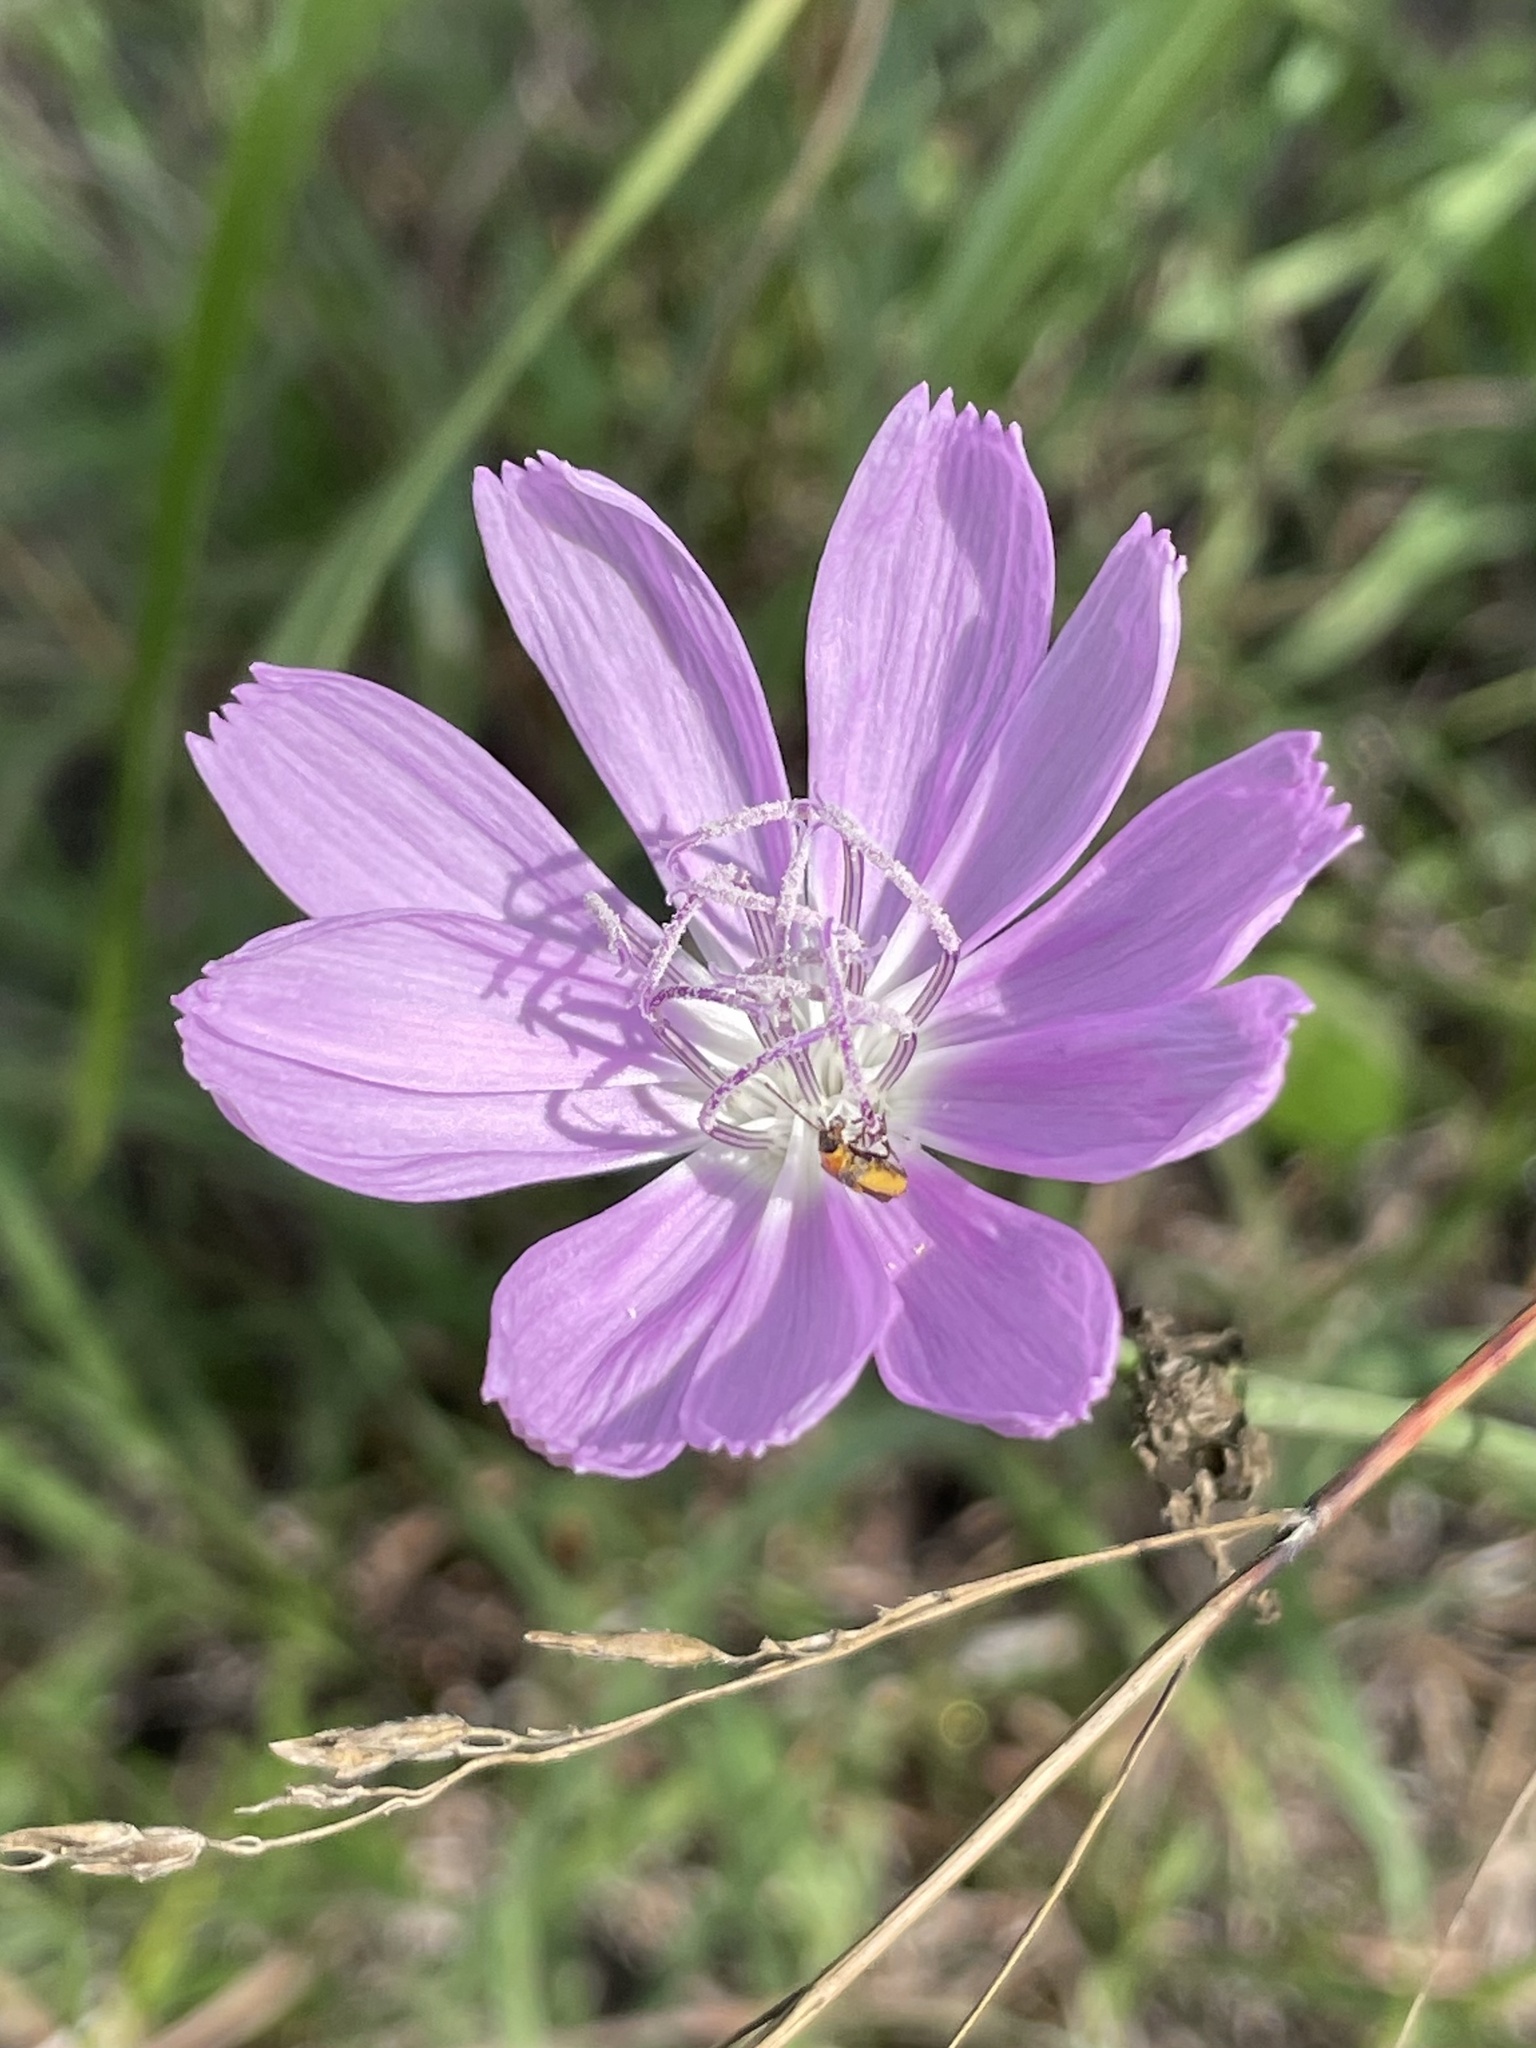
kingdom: Plantae
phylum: Tracheophyta
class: Magnoliopsida
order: Asterales
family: Asteraceae
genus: Lygodesmia
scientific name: Lygodesmia texana
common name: Texas skeleton-plant
